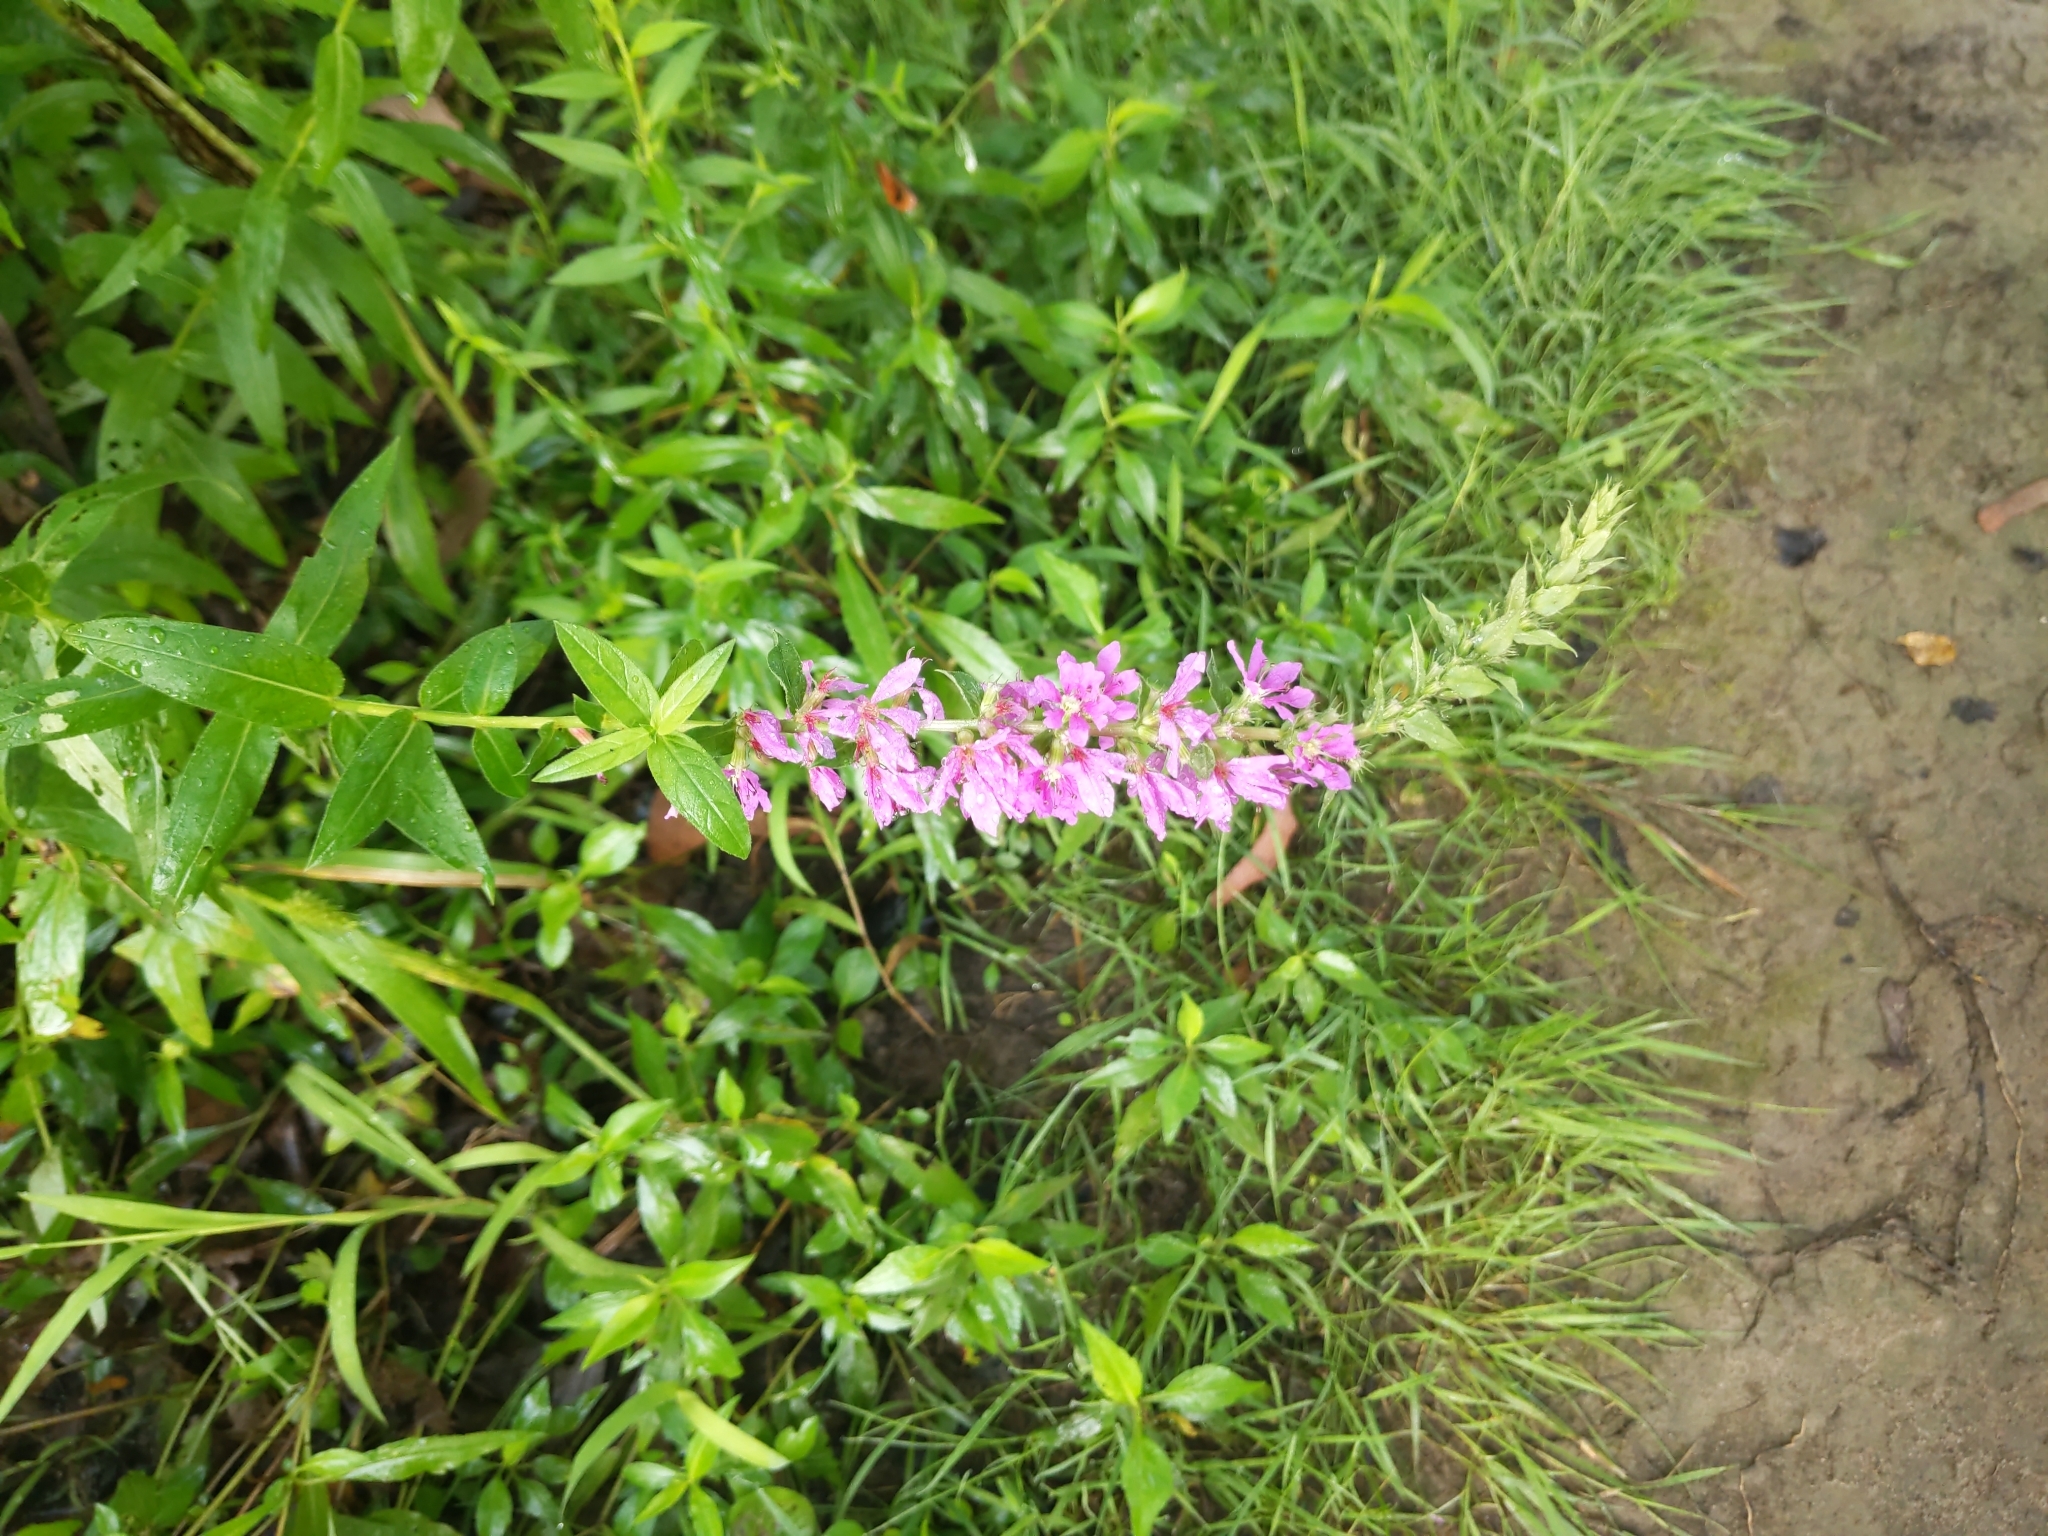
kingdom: Plantae
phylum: Tracheophyta
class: Magnoliopsida
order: Myrtales
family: Lythraceae
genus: Lythrum
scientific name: Lythrum salicaria
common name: Purple loosestrife
